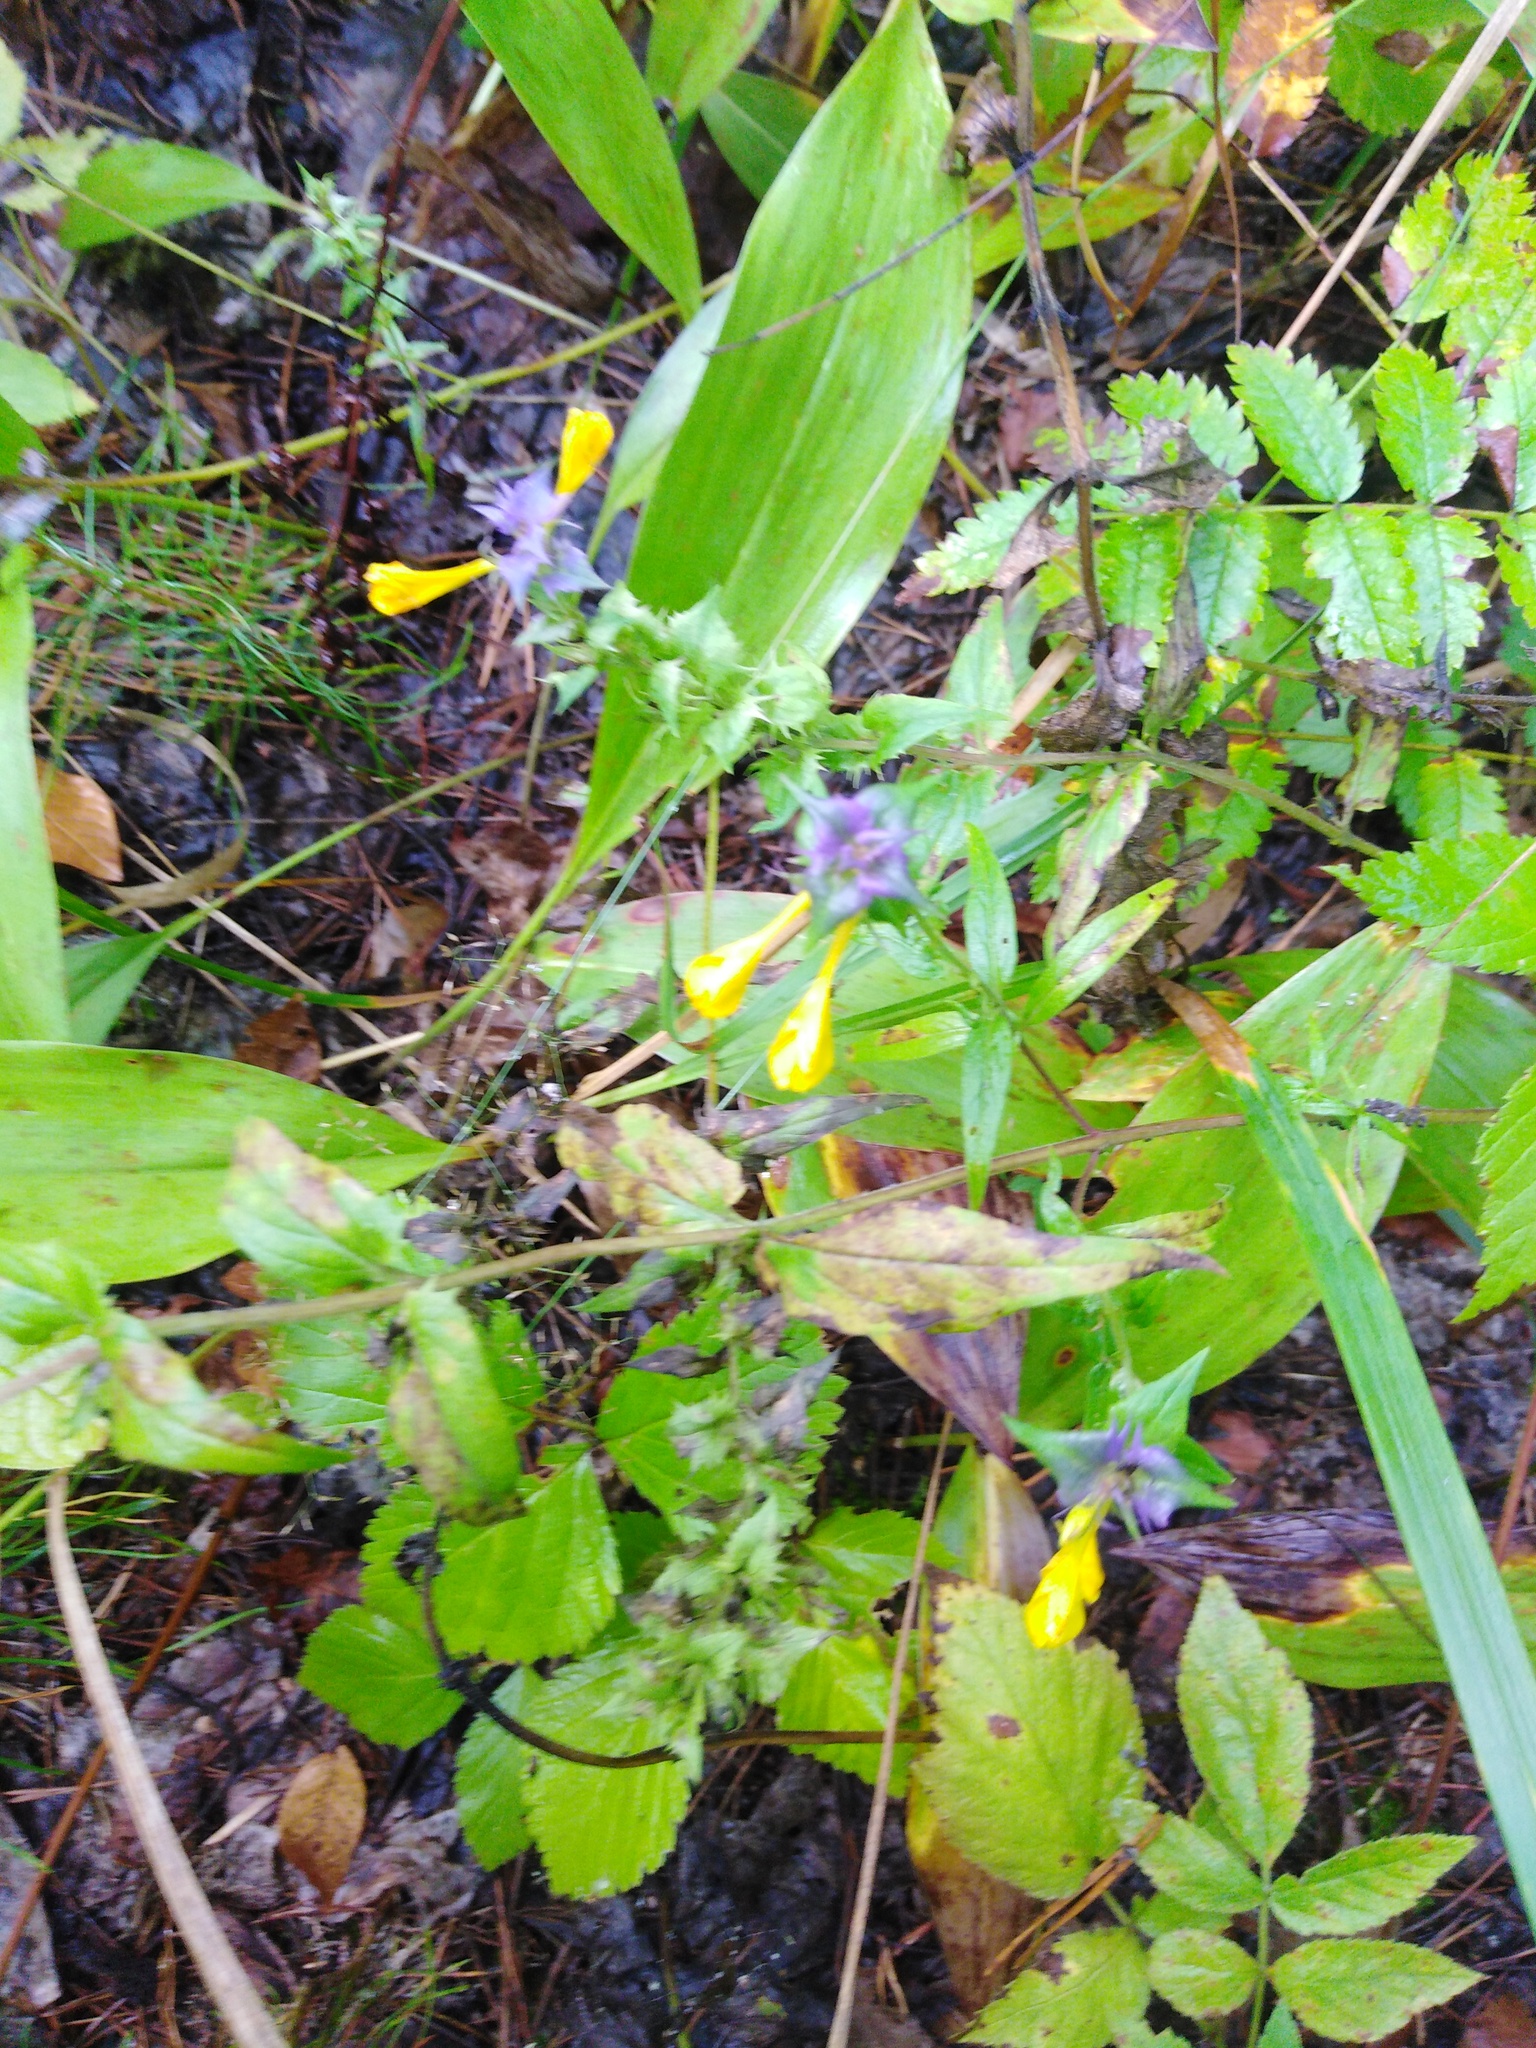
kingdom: Plantae
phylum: Tracheophyta
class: Magnoliopsida
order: Lamiales
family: Orobanchaceae
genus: Melampyrum
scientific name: Melampyrum nemorosum
